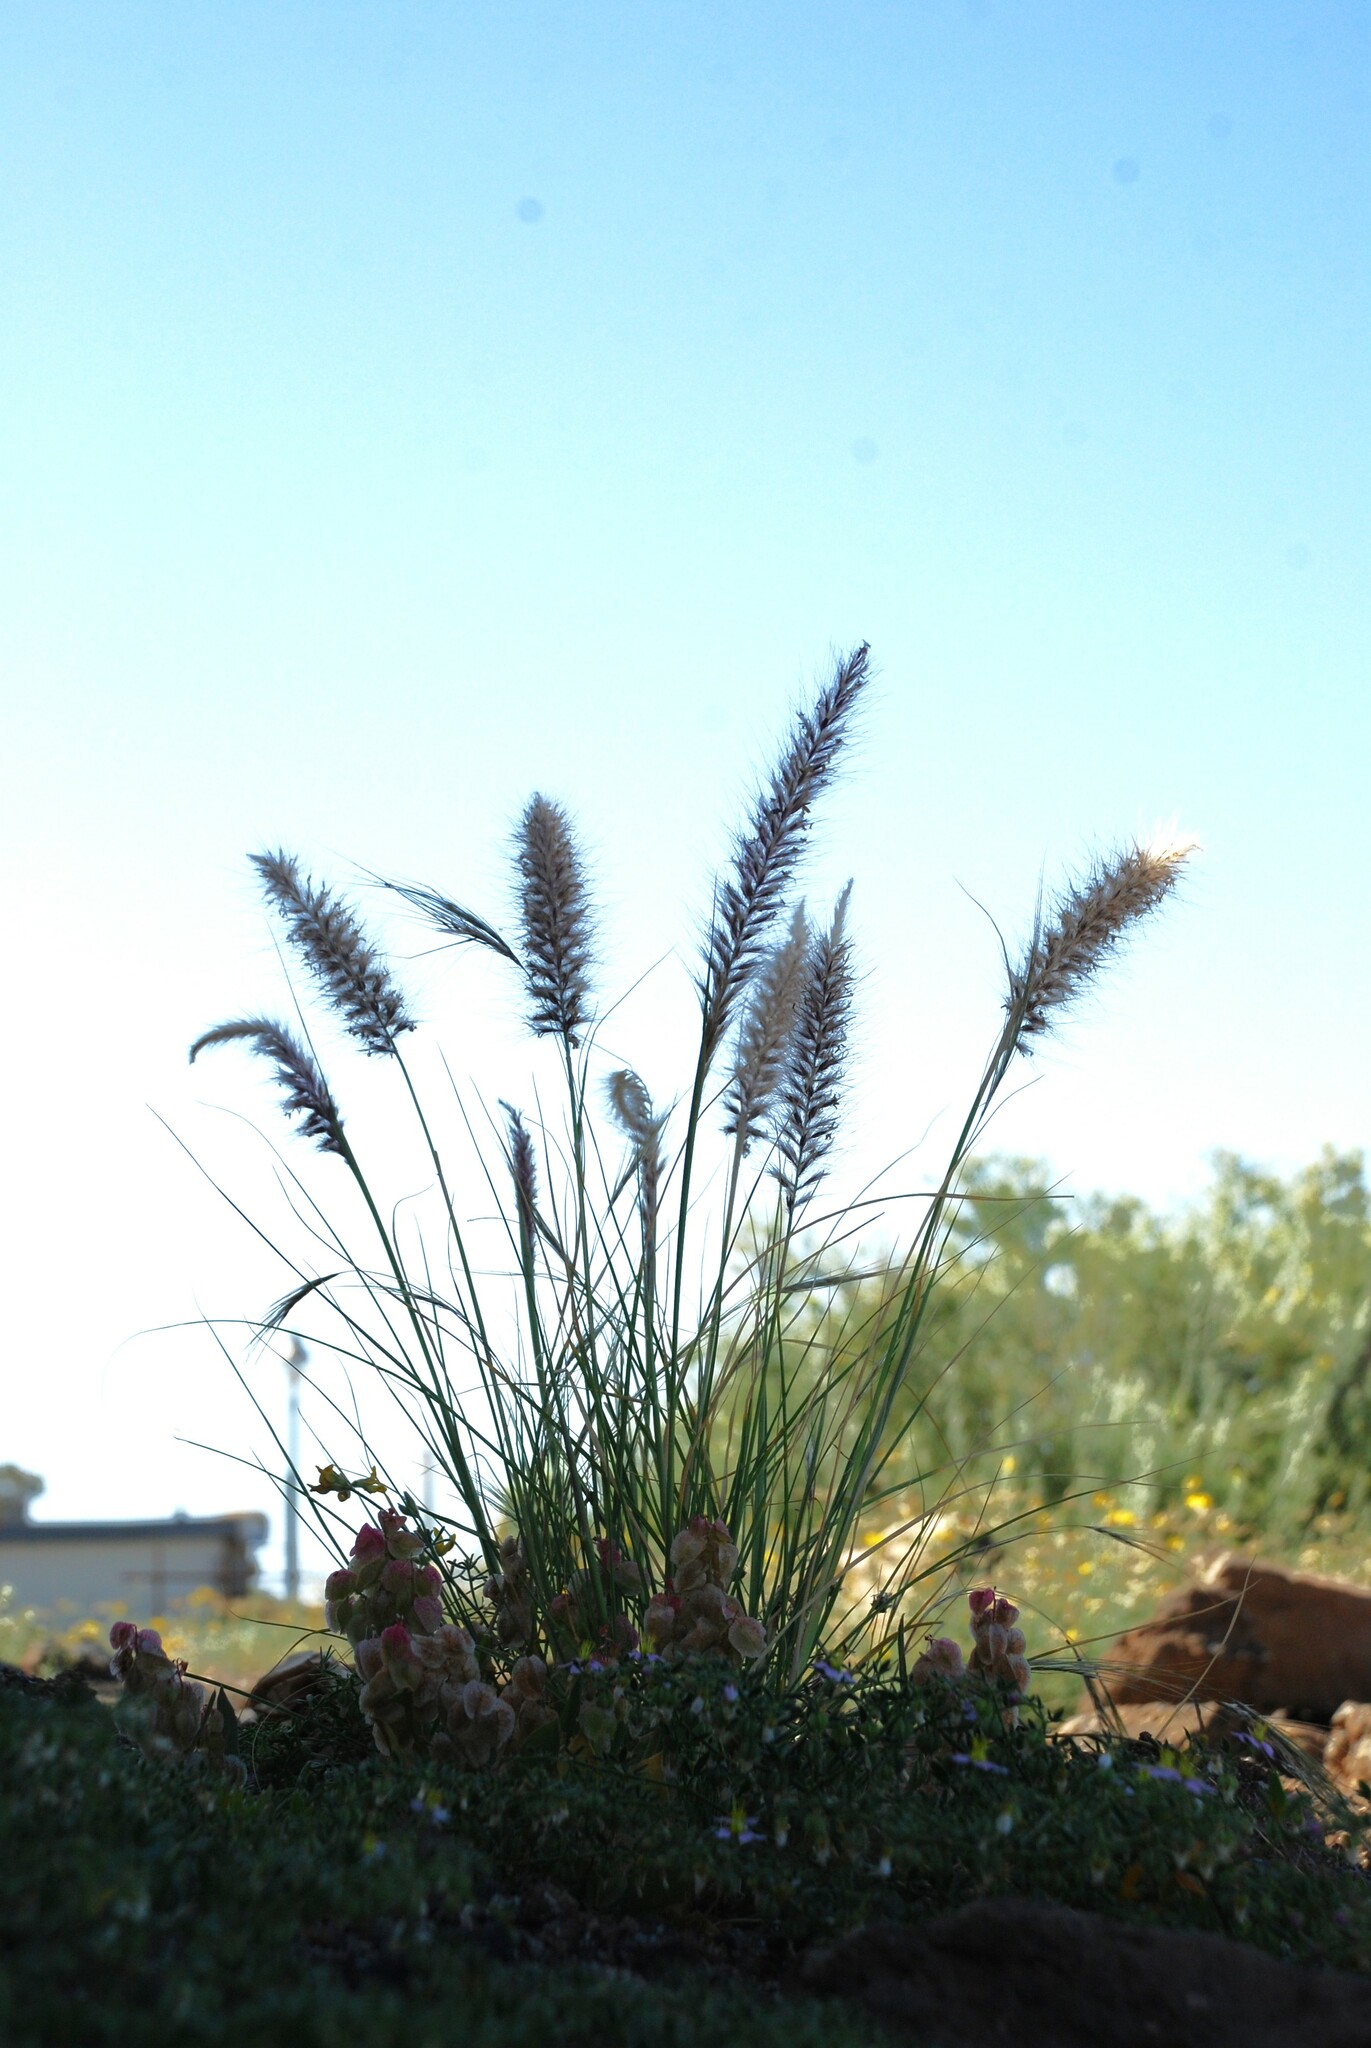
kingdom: Plantae
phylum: Tracheophyta
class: Liliopsida
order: Poales
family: Poaceae
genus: Cenchrus
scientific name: Cenchrus setaceus
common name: Crimson fountaingrass
